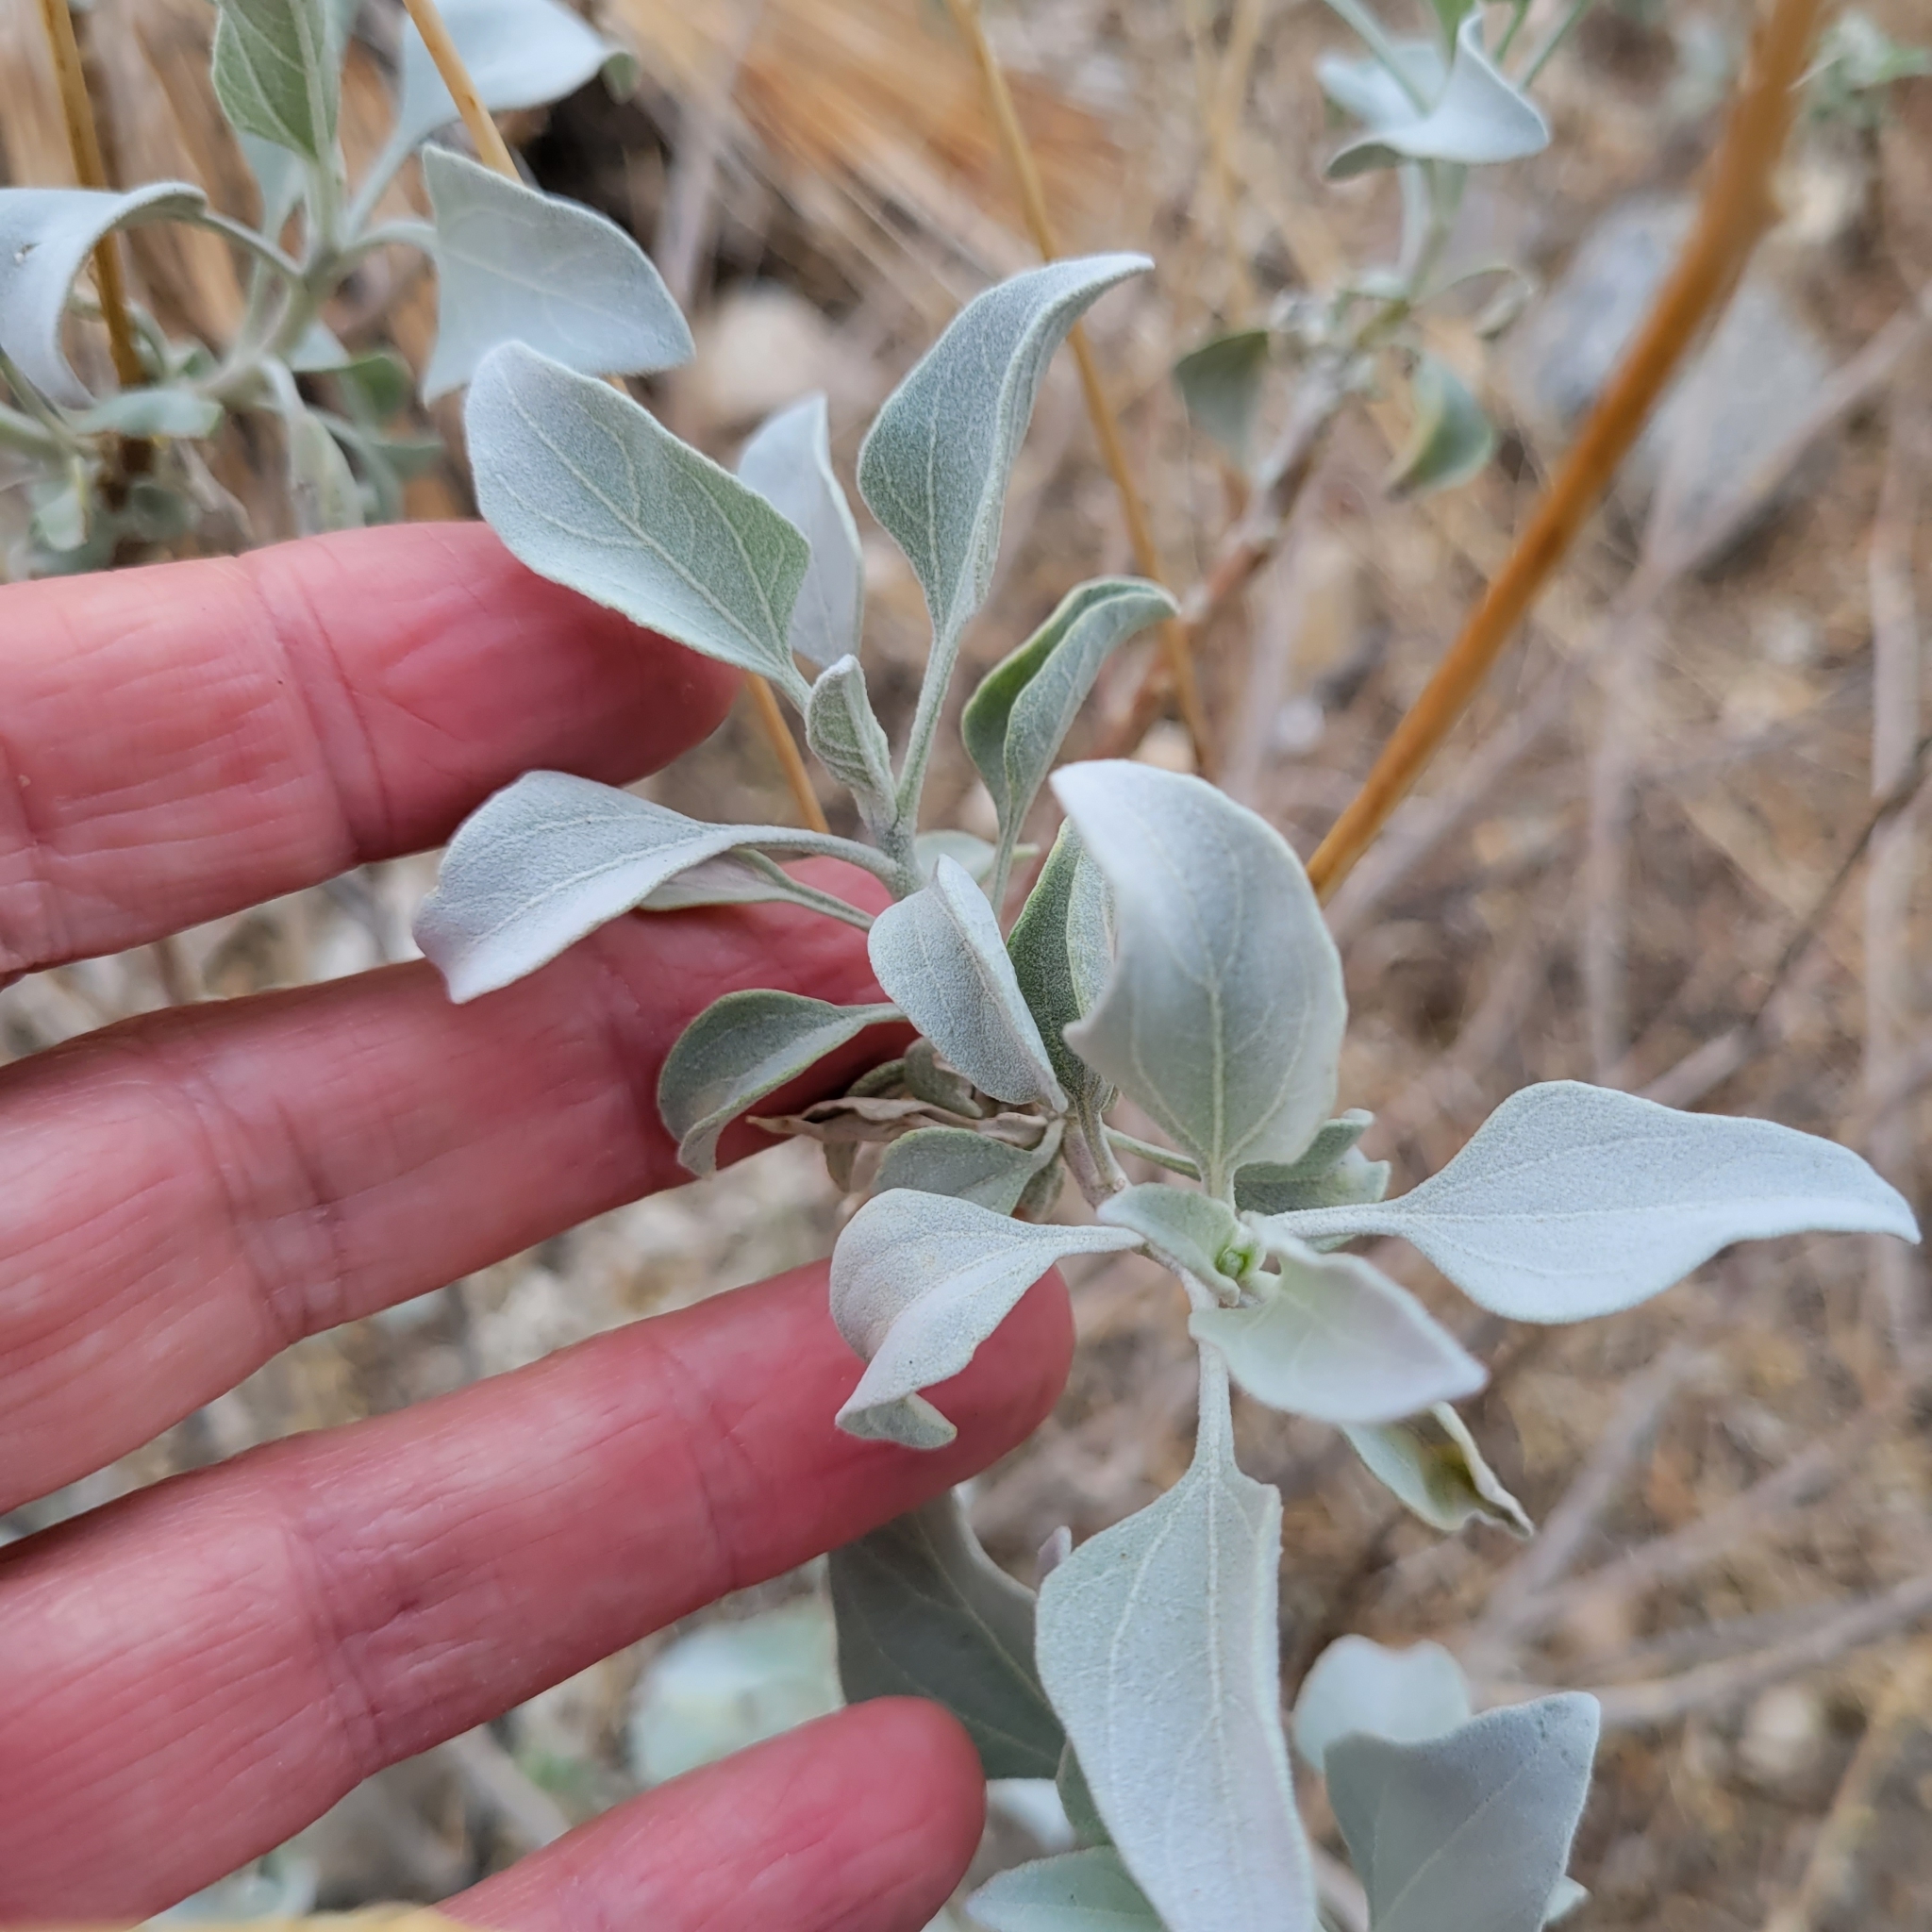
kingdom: Plantae
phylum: Tracheophyta
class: Magnoliopsida
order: Asterales
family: Asteraceae
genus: Encelia
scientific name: Encelia farinosa
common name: Brittlebush
